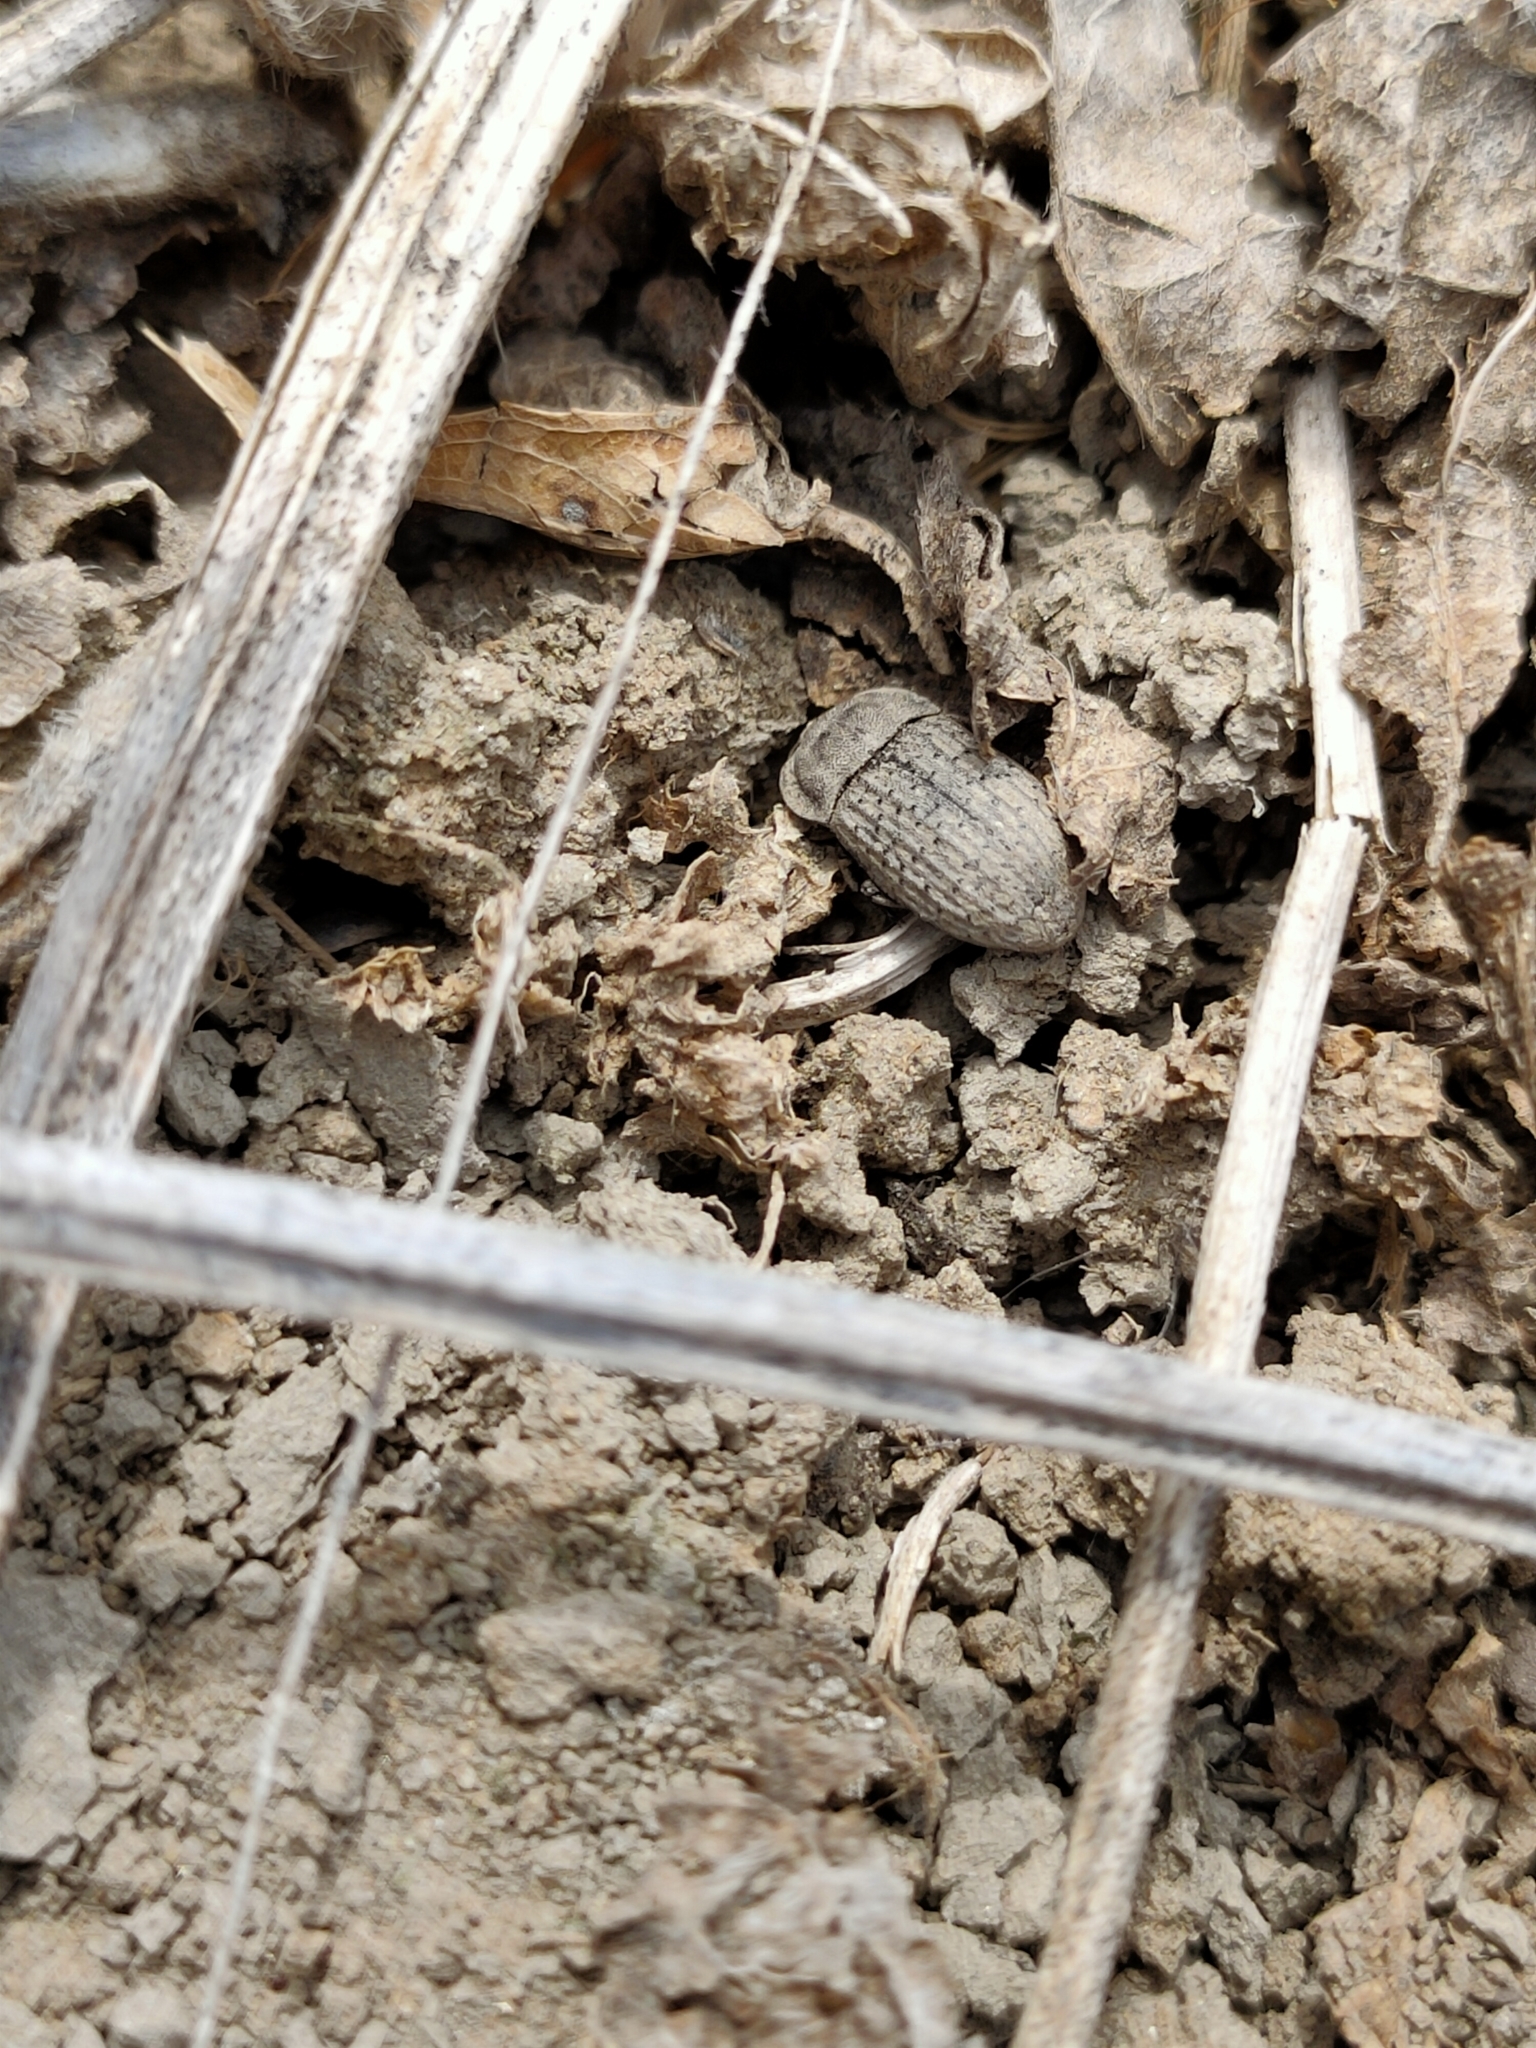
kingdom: Animalia
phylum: Arthropoda
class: Insecta
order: Coleoptera
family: Tenebrionidae
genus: Opatrum
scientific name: Opatrum sabulosum
